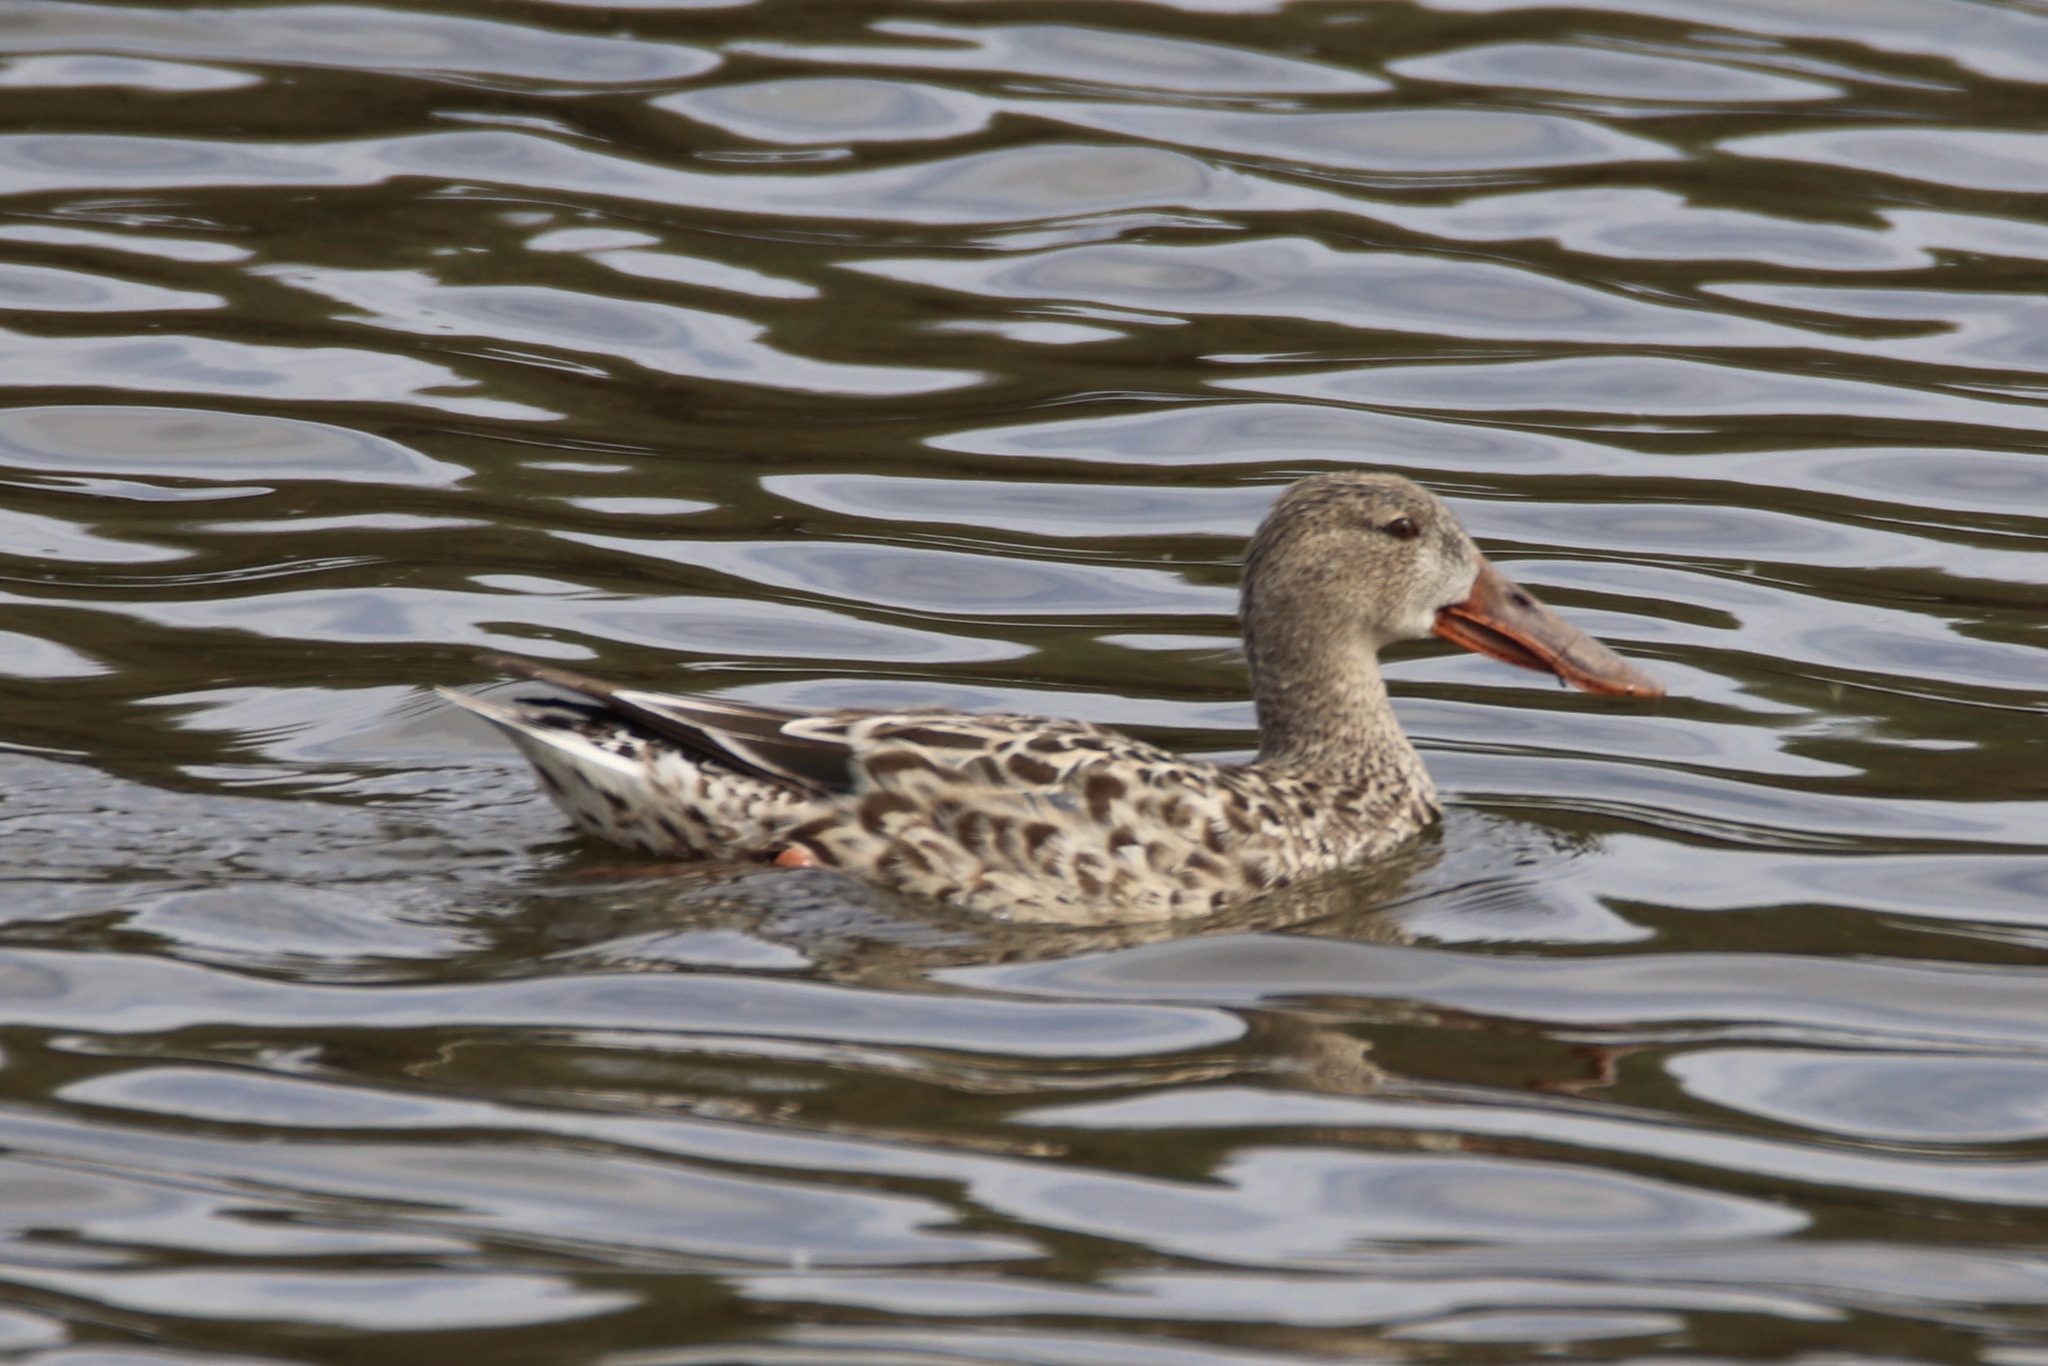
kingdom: Animalia
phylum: Chordata
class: Aves
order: Anseriformes
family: Anatidae
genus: Spatula
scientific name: Spatula clypeata
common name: Northern shoveler
